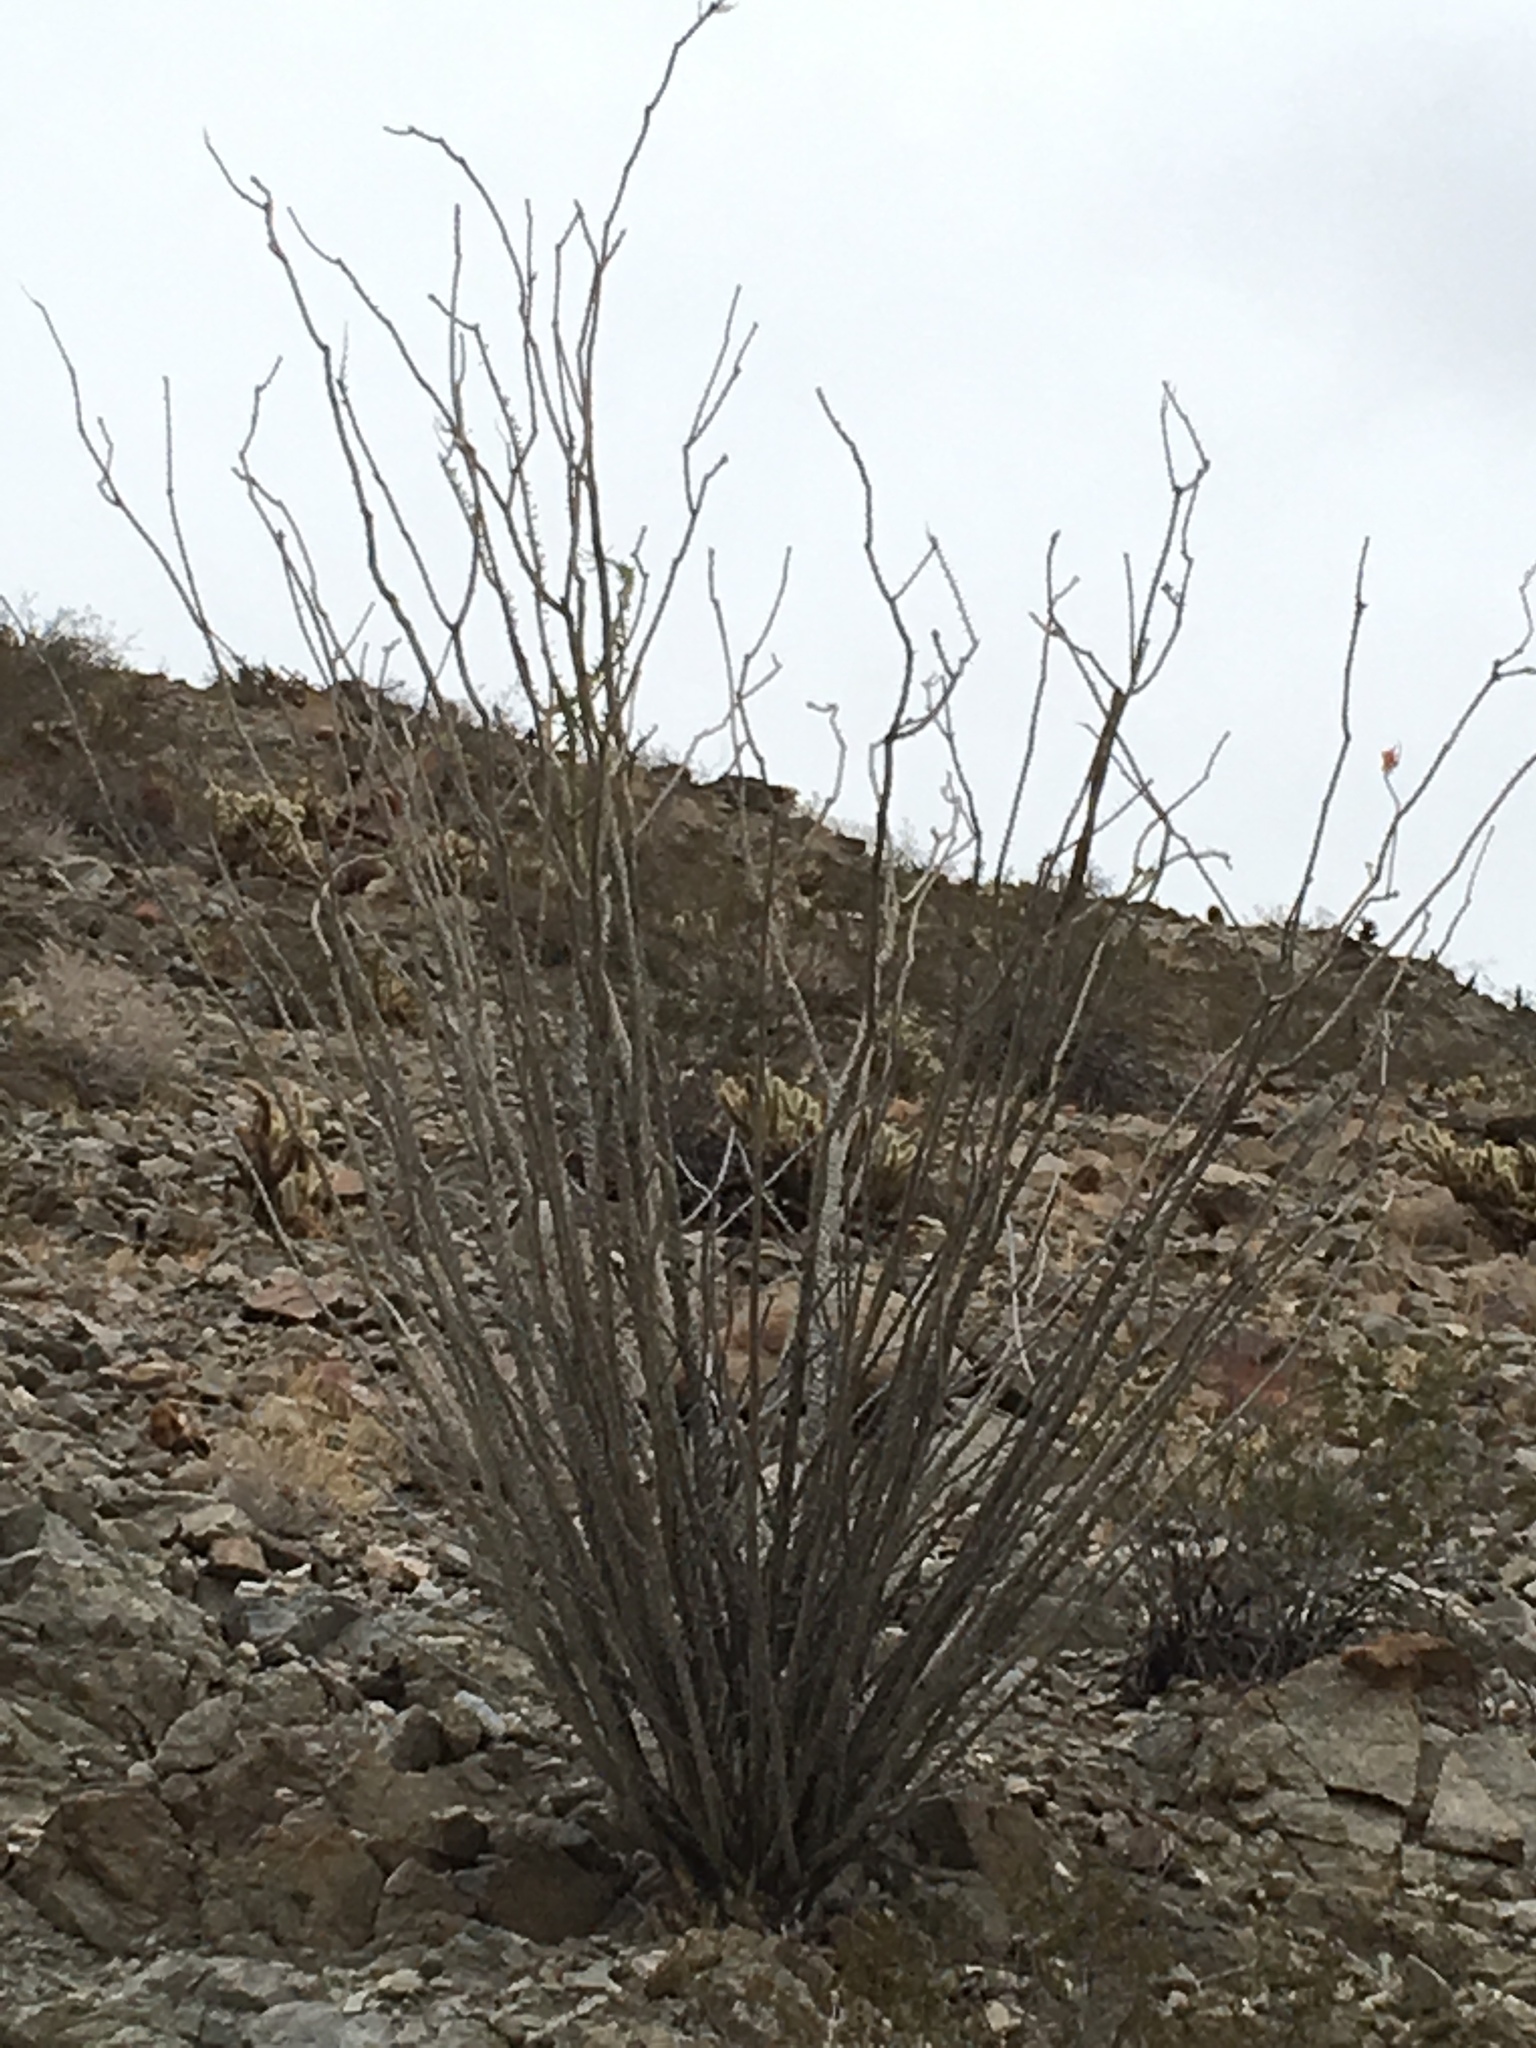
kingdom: Plantae
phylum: Tracheophyta
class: Magnoliopsida
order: Ericales
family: Fouquieriaceae
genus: Fouquieria
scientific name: Fouquieria splendens
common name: Vine-cactus
